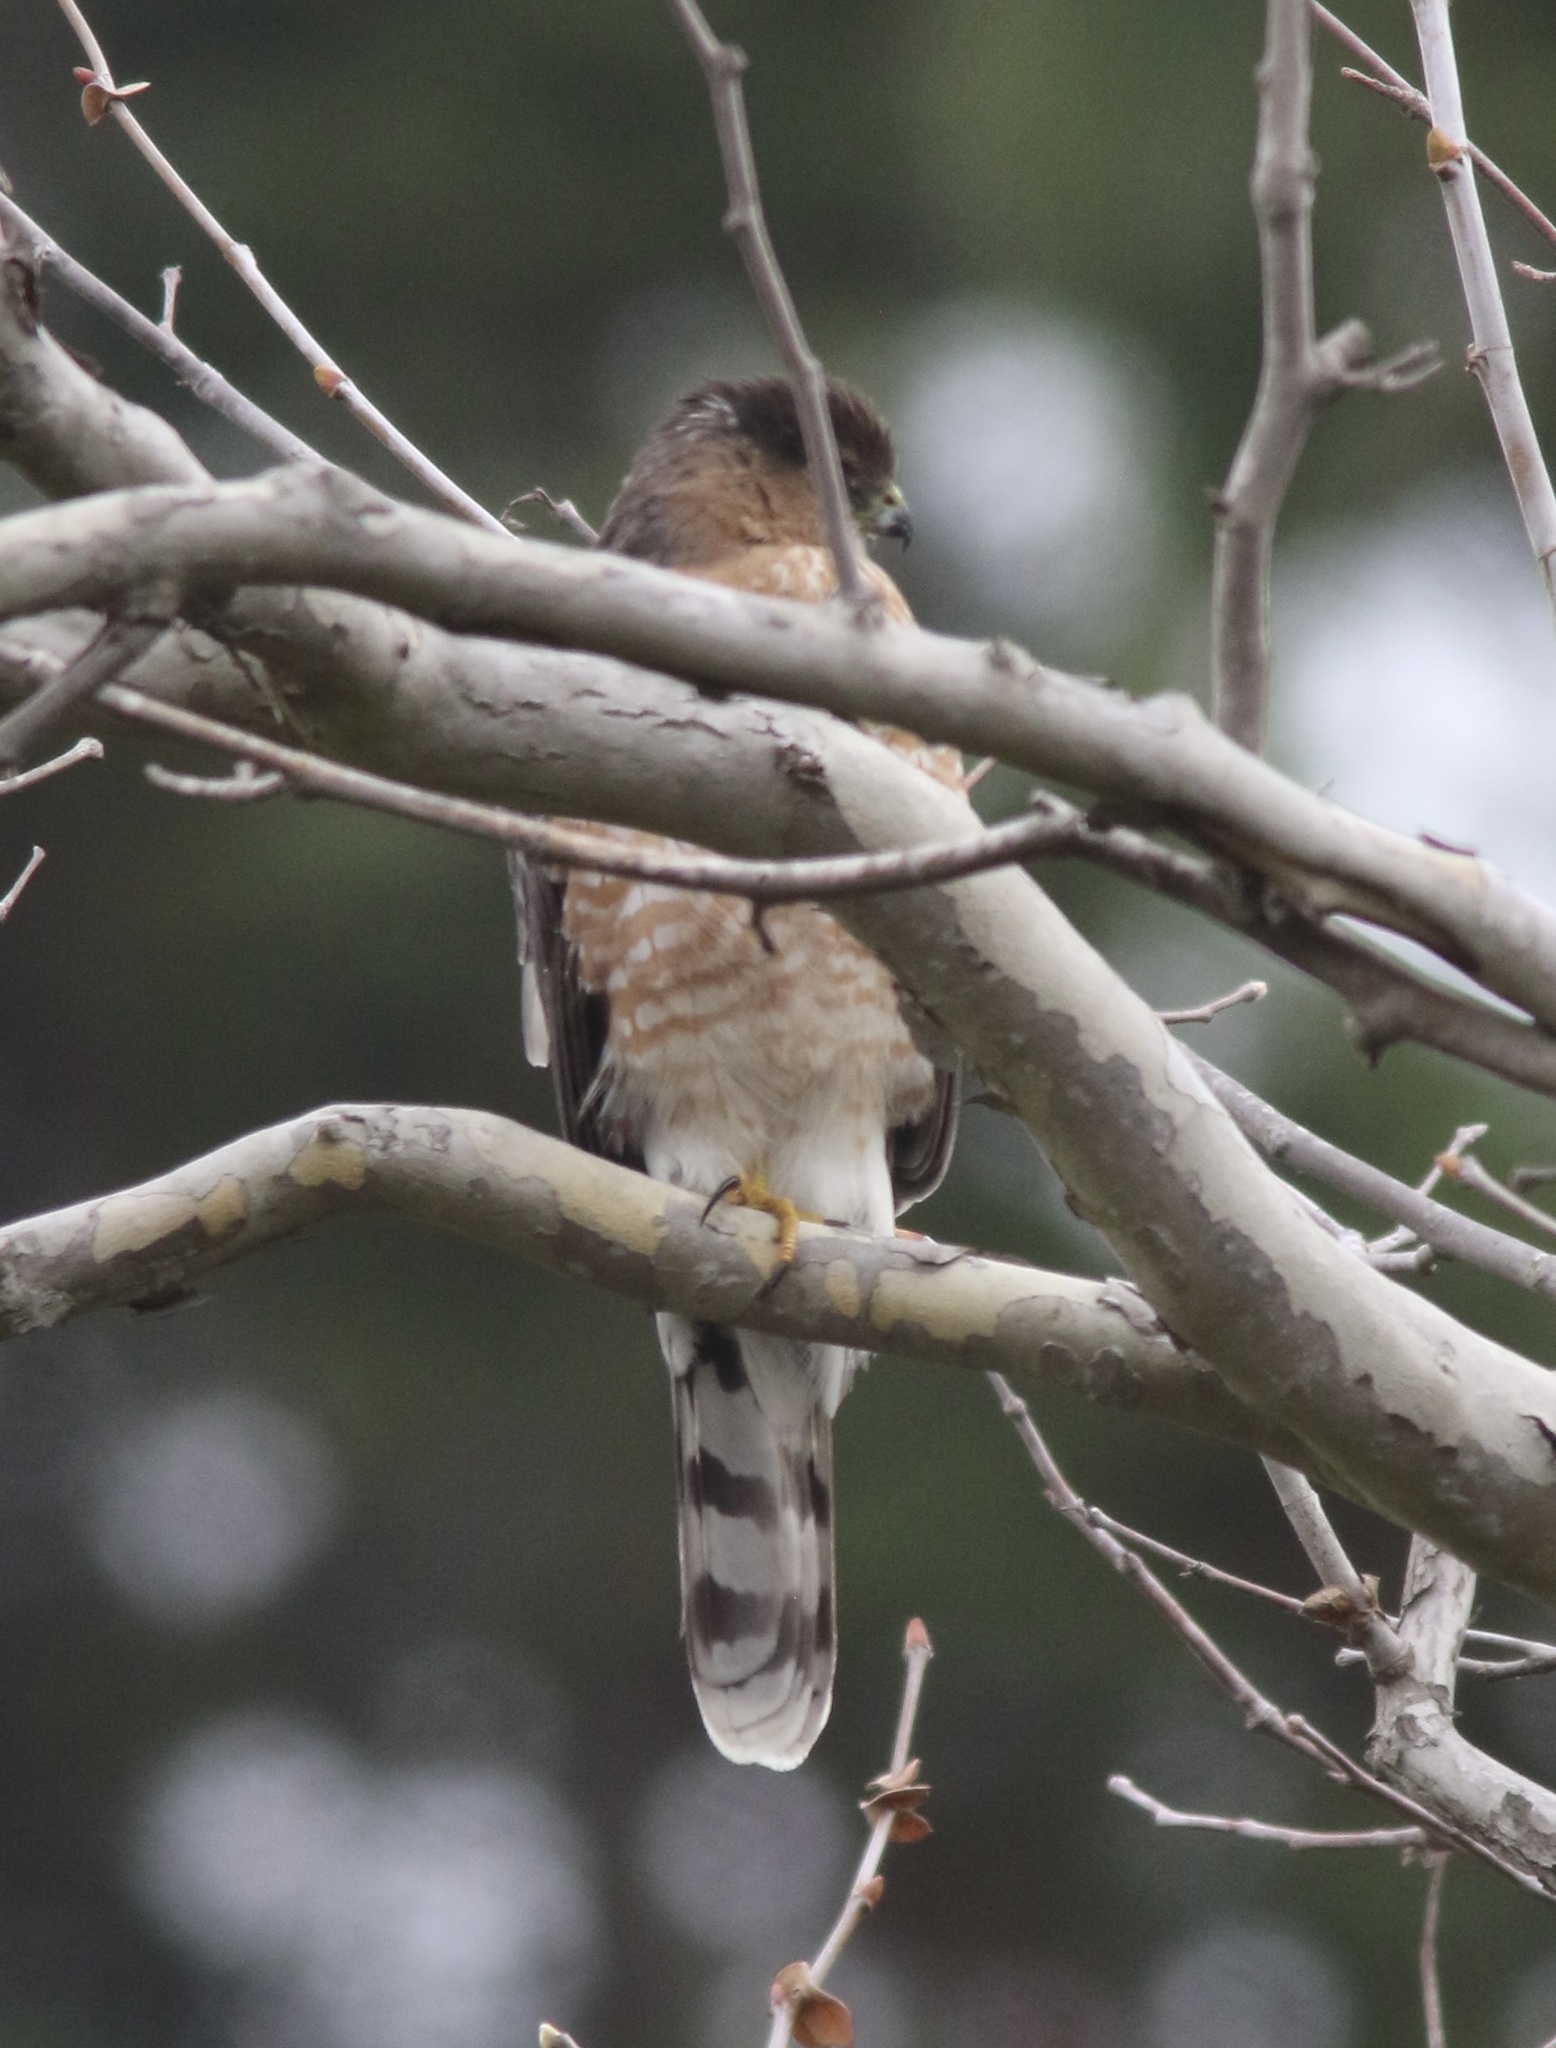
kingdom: Animalia
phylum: Chordata
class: Aves
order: Accipitriformes
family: Accipitridae
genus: Accipiter
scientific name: Accipiter cooperii
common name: Cooper's hawk
